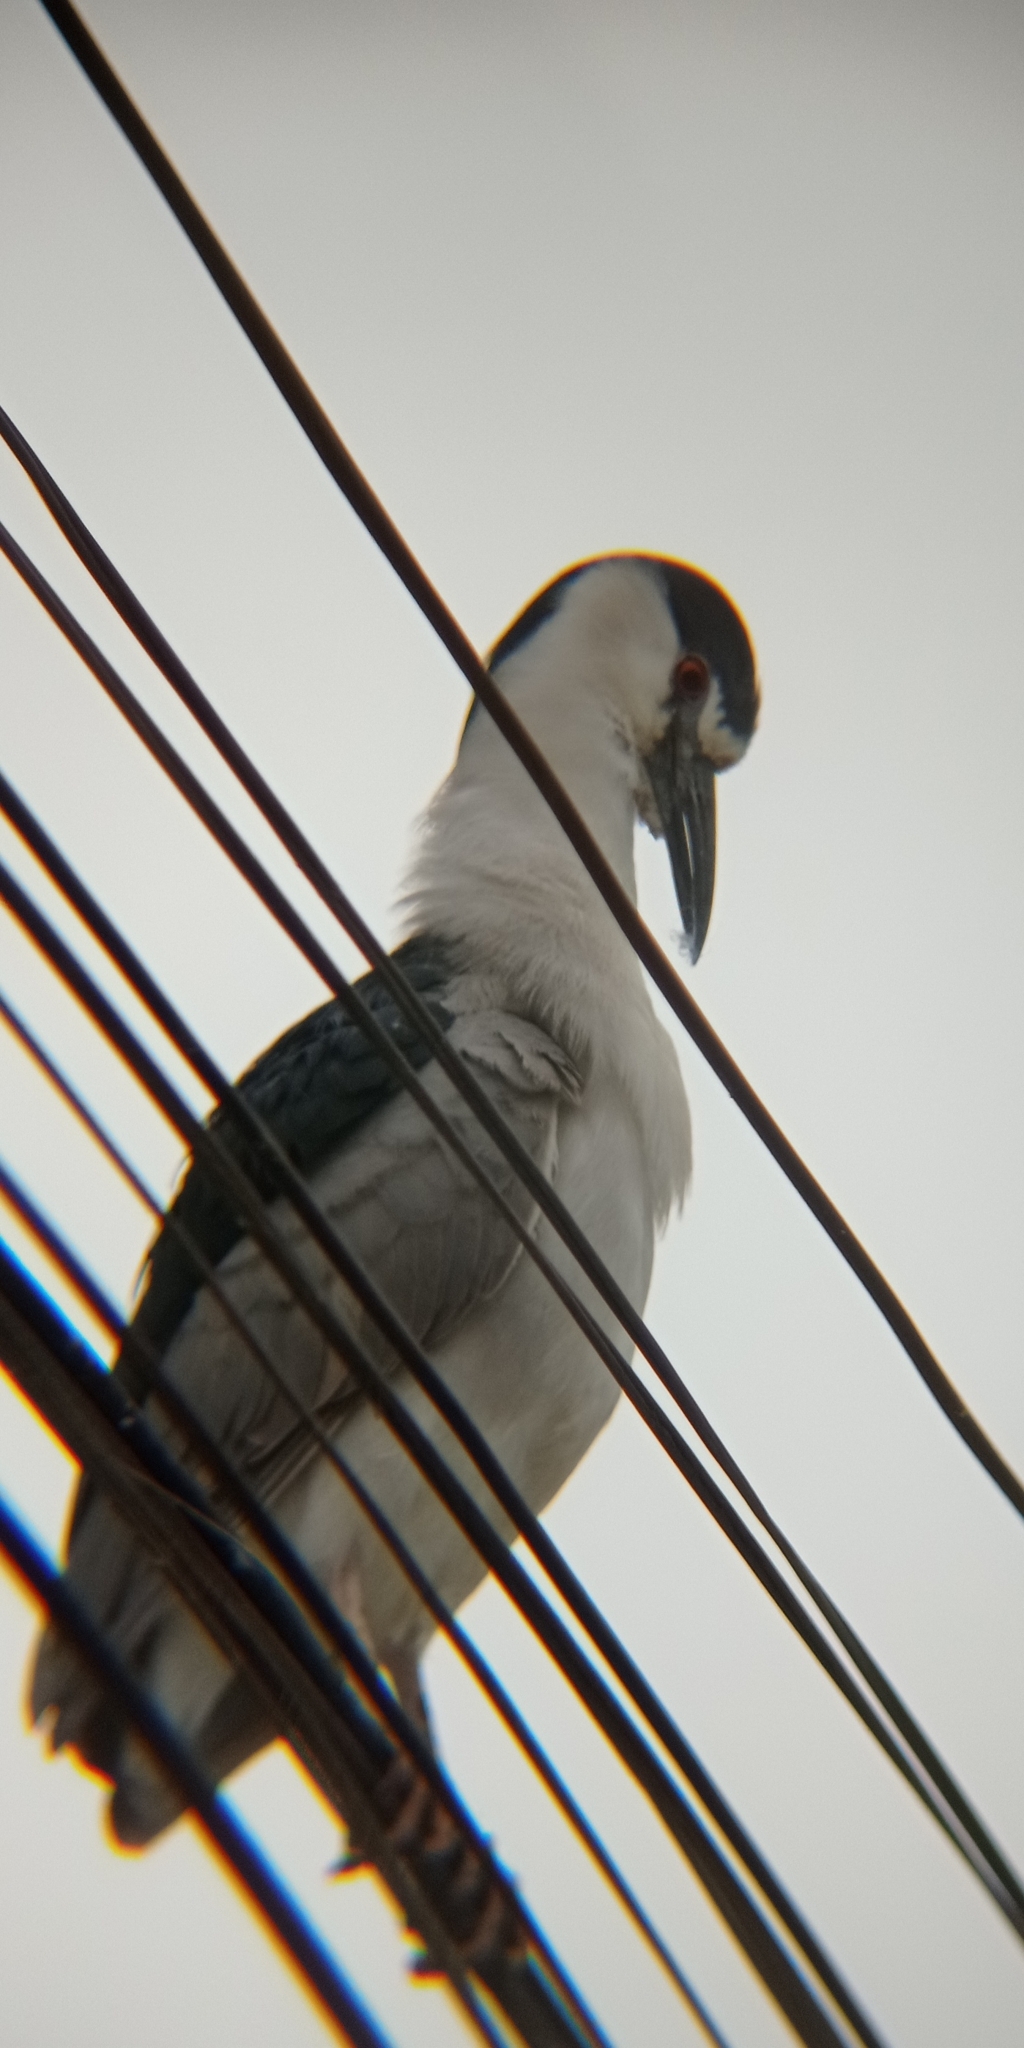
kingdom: Animalia
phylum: Chordata
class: Aves
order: Pelecaniformes
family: Ardeidae
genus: Nycticorax
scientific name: Nycticorax nycticorax
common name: Black-crowned night heron
